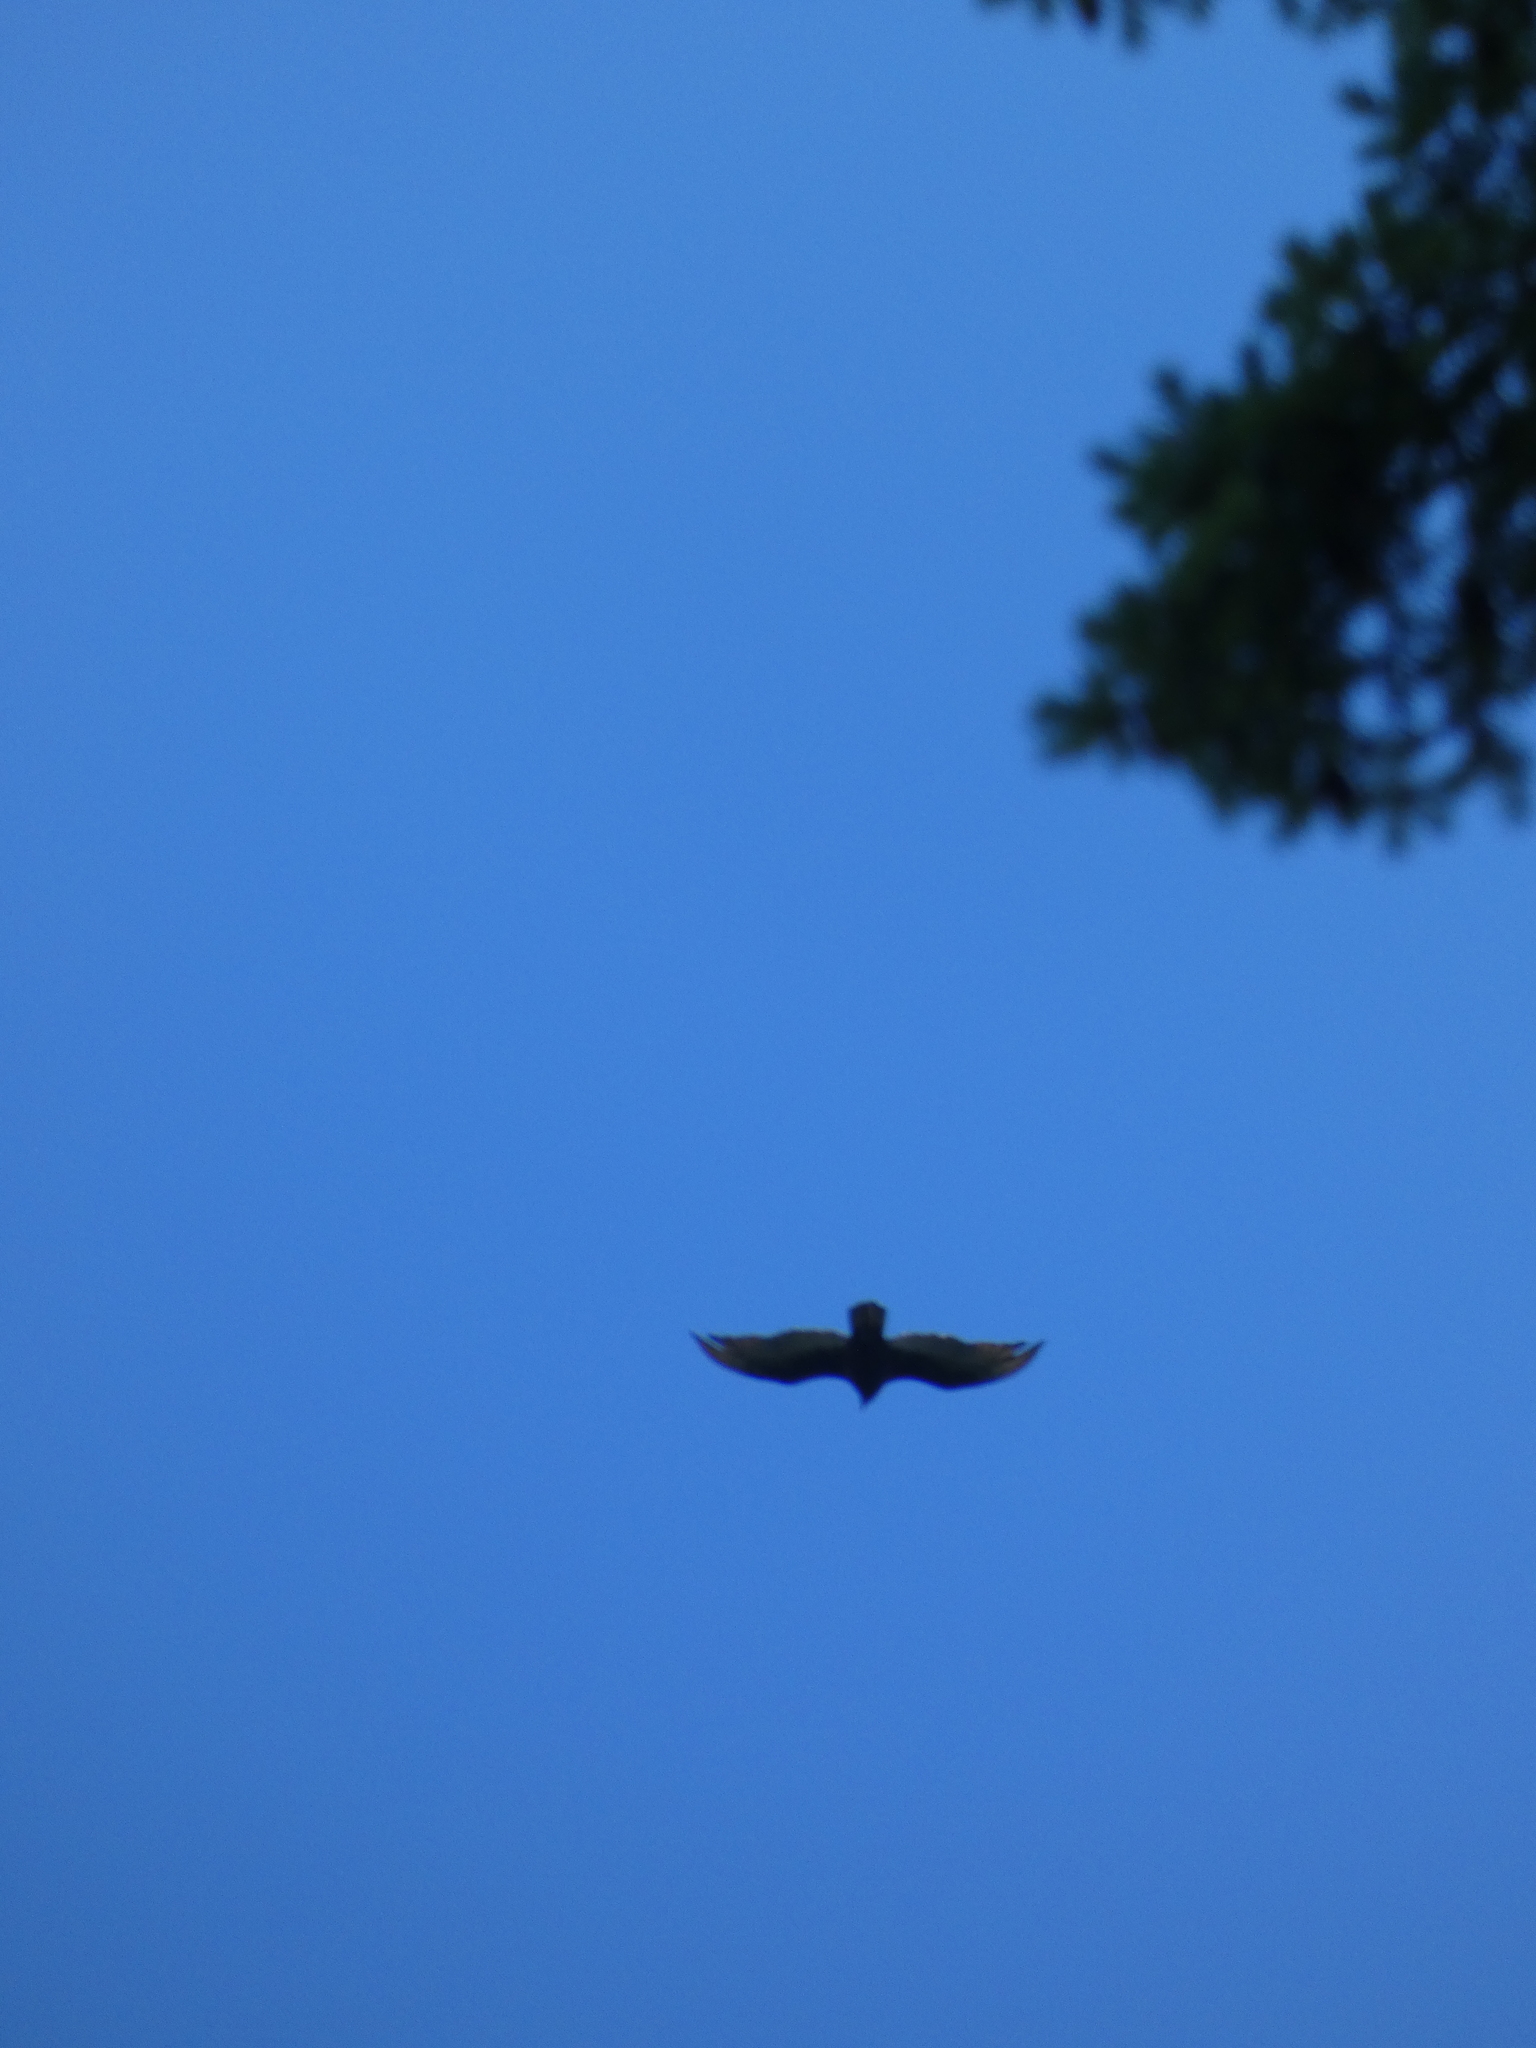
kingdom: Animalia
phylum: Chordata
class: Aves
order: Accipitriformes
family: Cathartidae
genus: Cathartes
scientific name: Cathartes aura
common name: Turkey vulture
